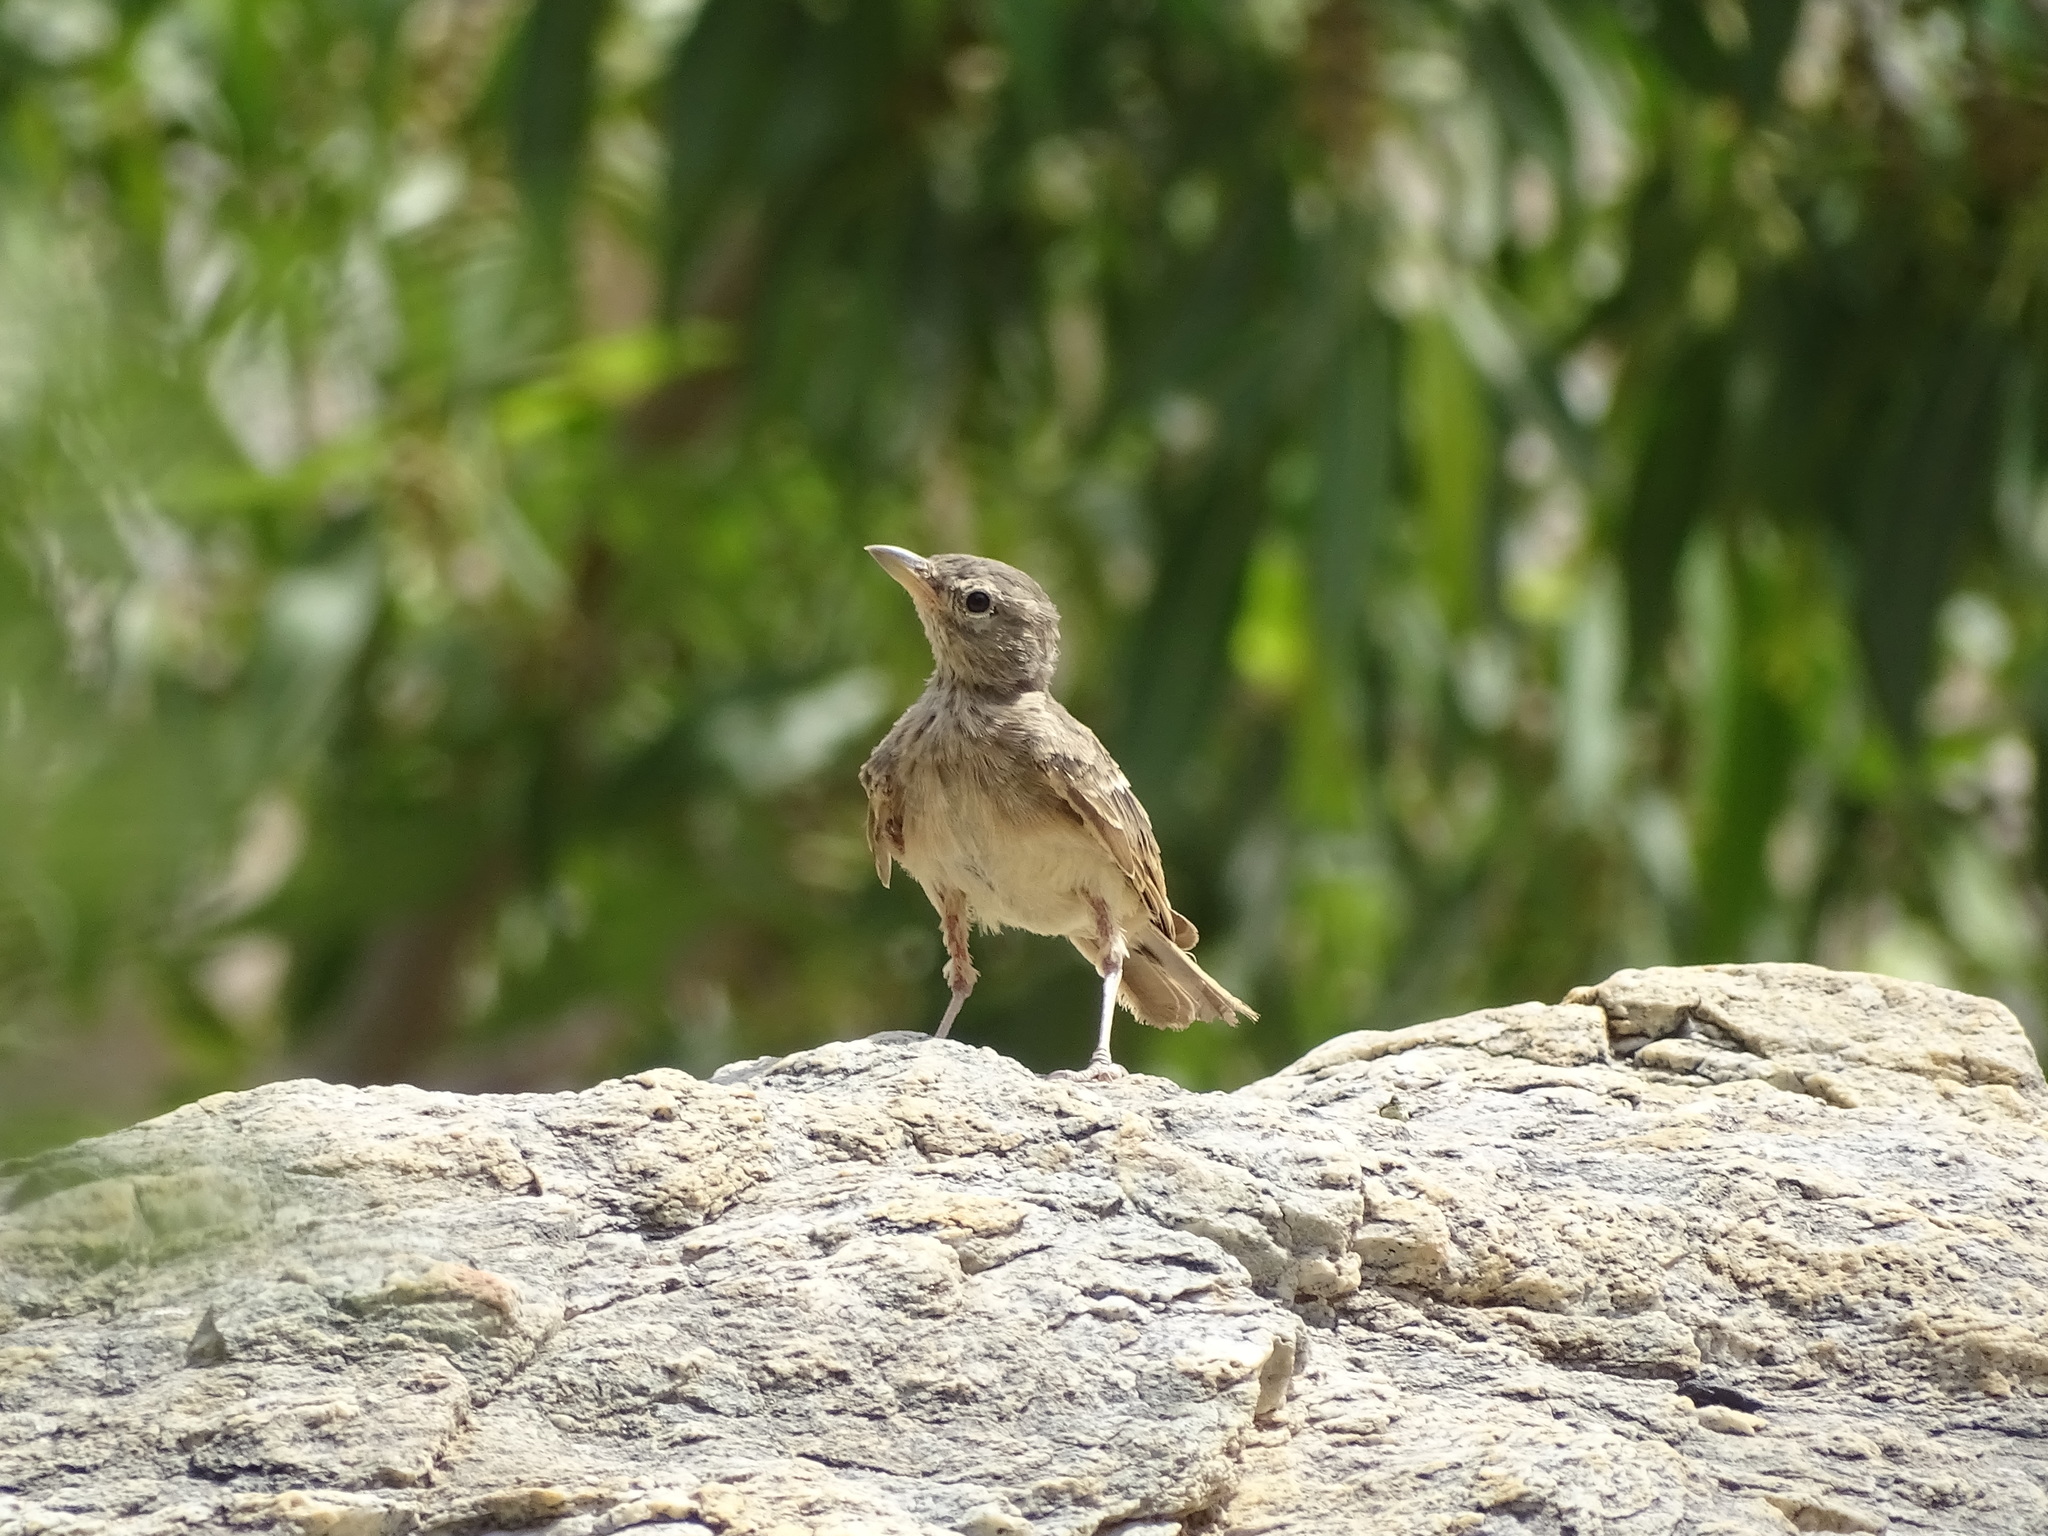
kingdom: Animalia
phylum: Chordata
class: Aves
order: Passeriformes
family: Alaudidae
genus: Ammomanes
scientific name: Ammomanes deserti
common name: Desert lark
